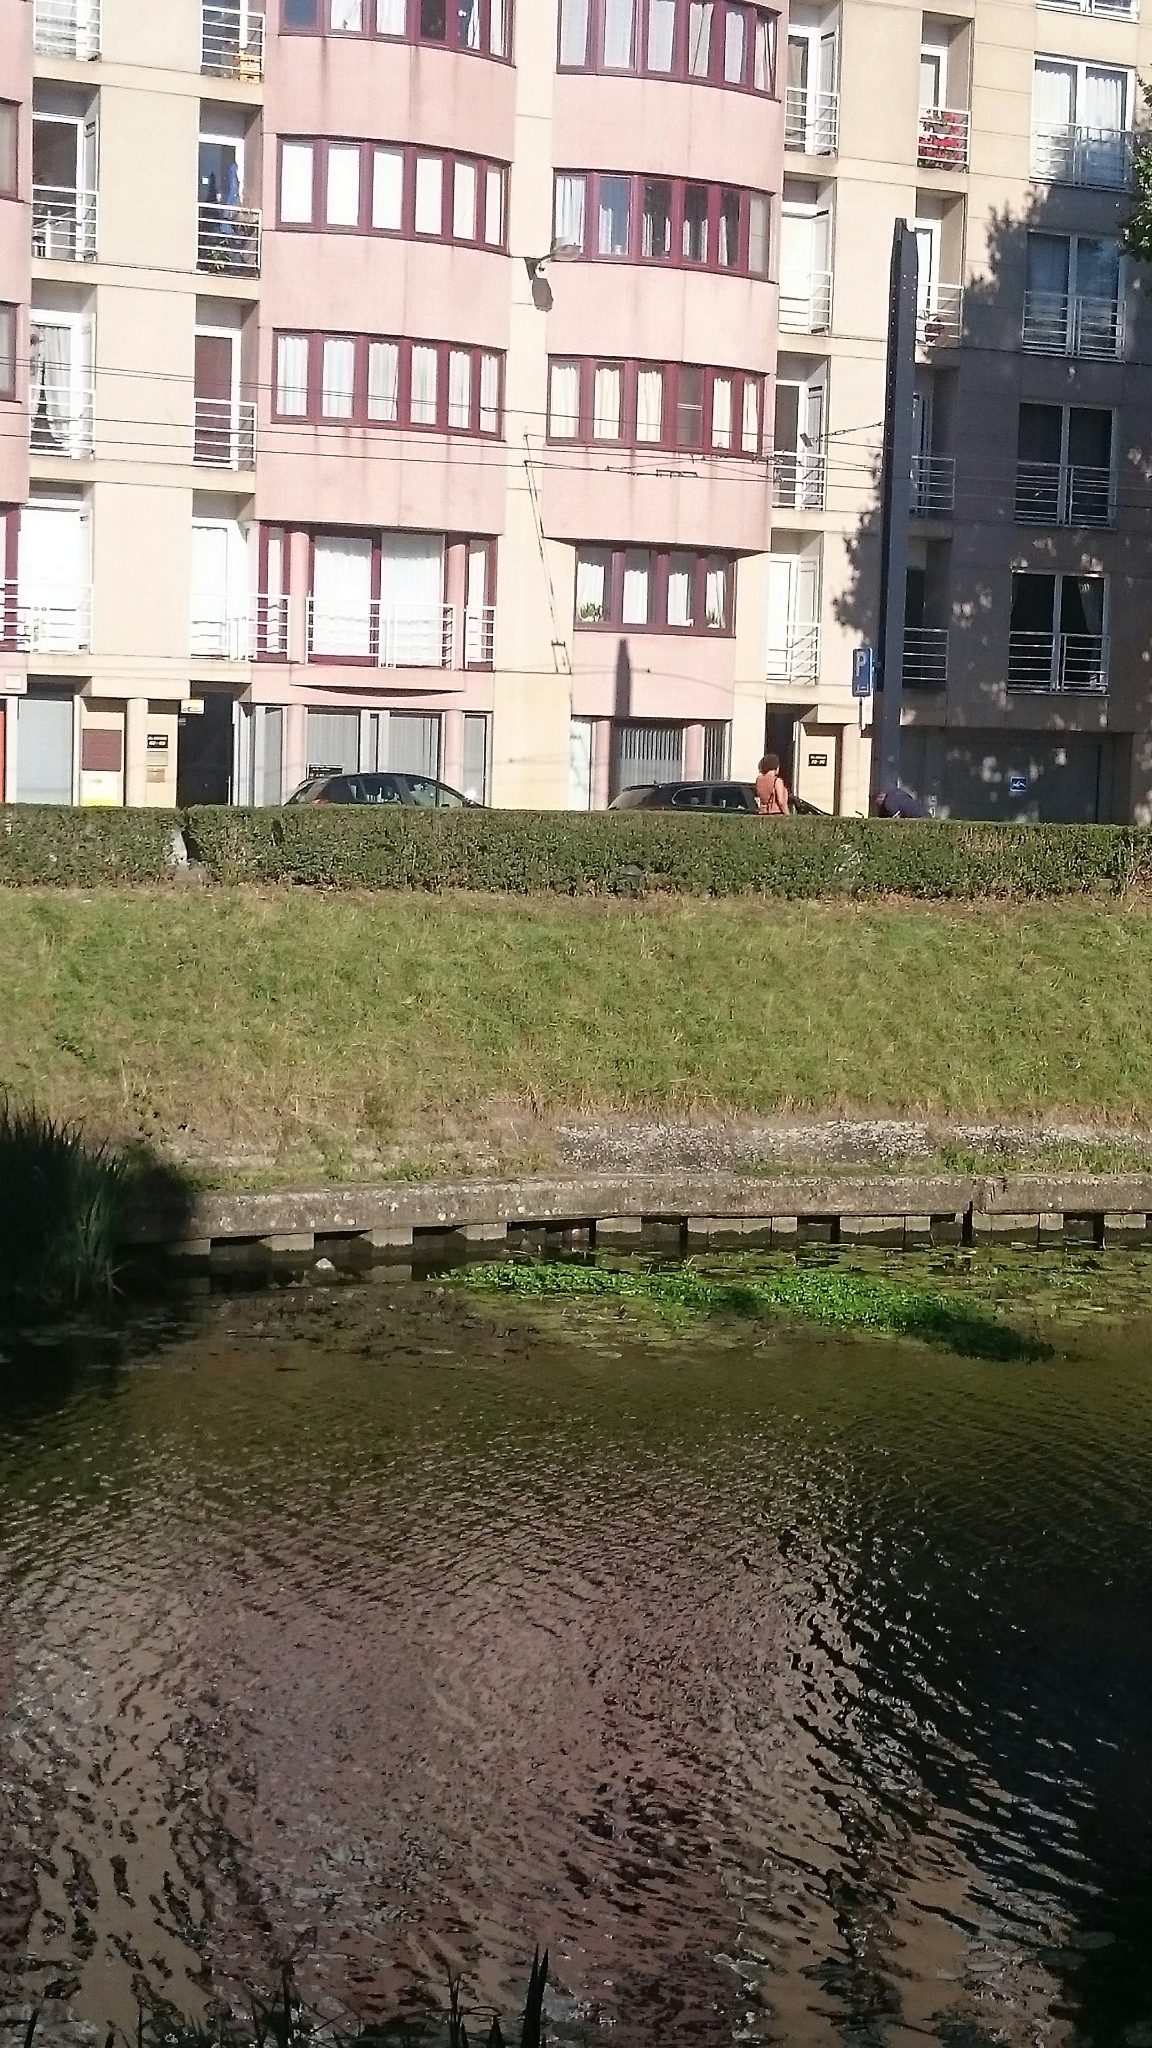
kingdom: Plantae
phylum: Tracheophyta
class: Magnoliopsida
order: Apiales
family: Araliaceae
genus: Hydrocotyle
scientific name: Hydrocotyle ranunculoides
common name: Floating pennywort
